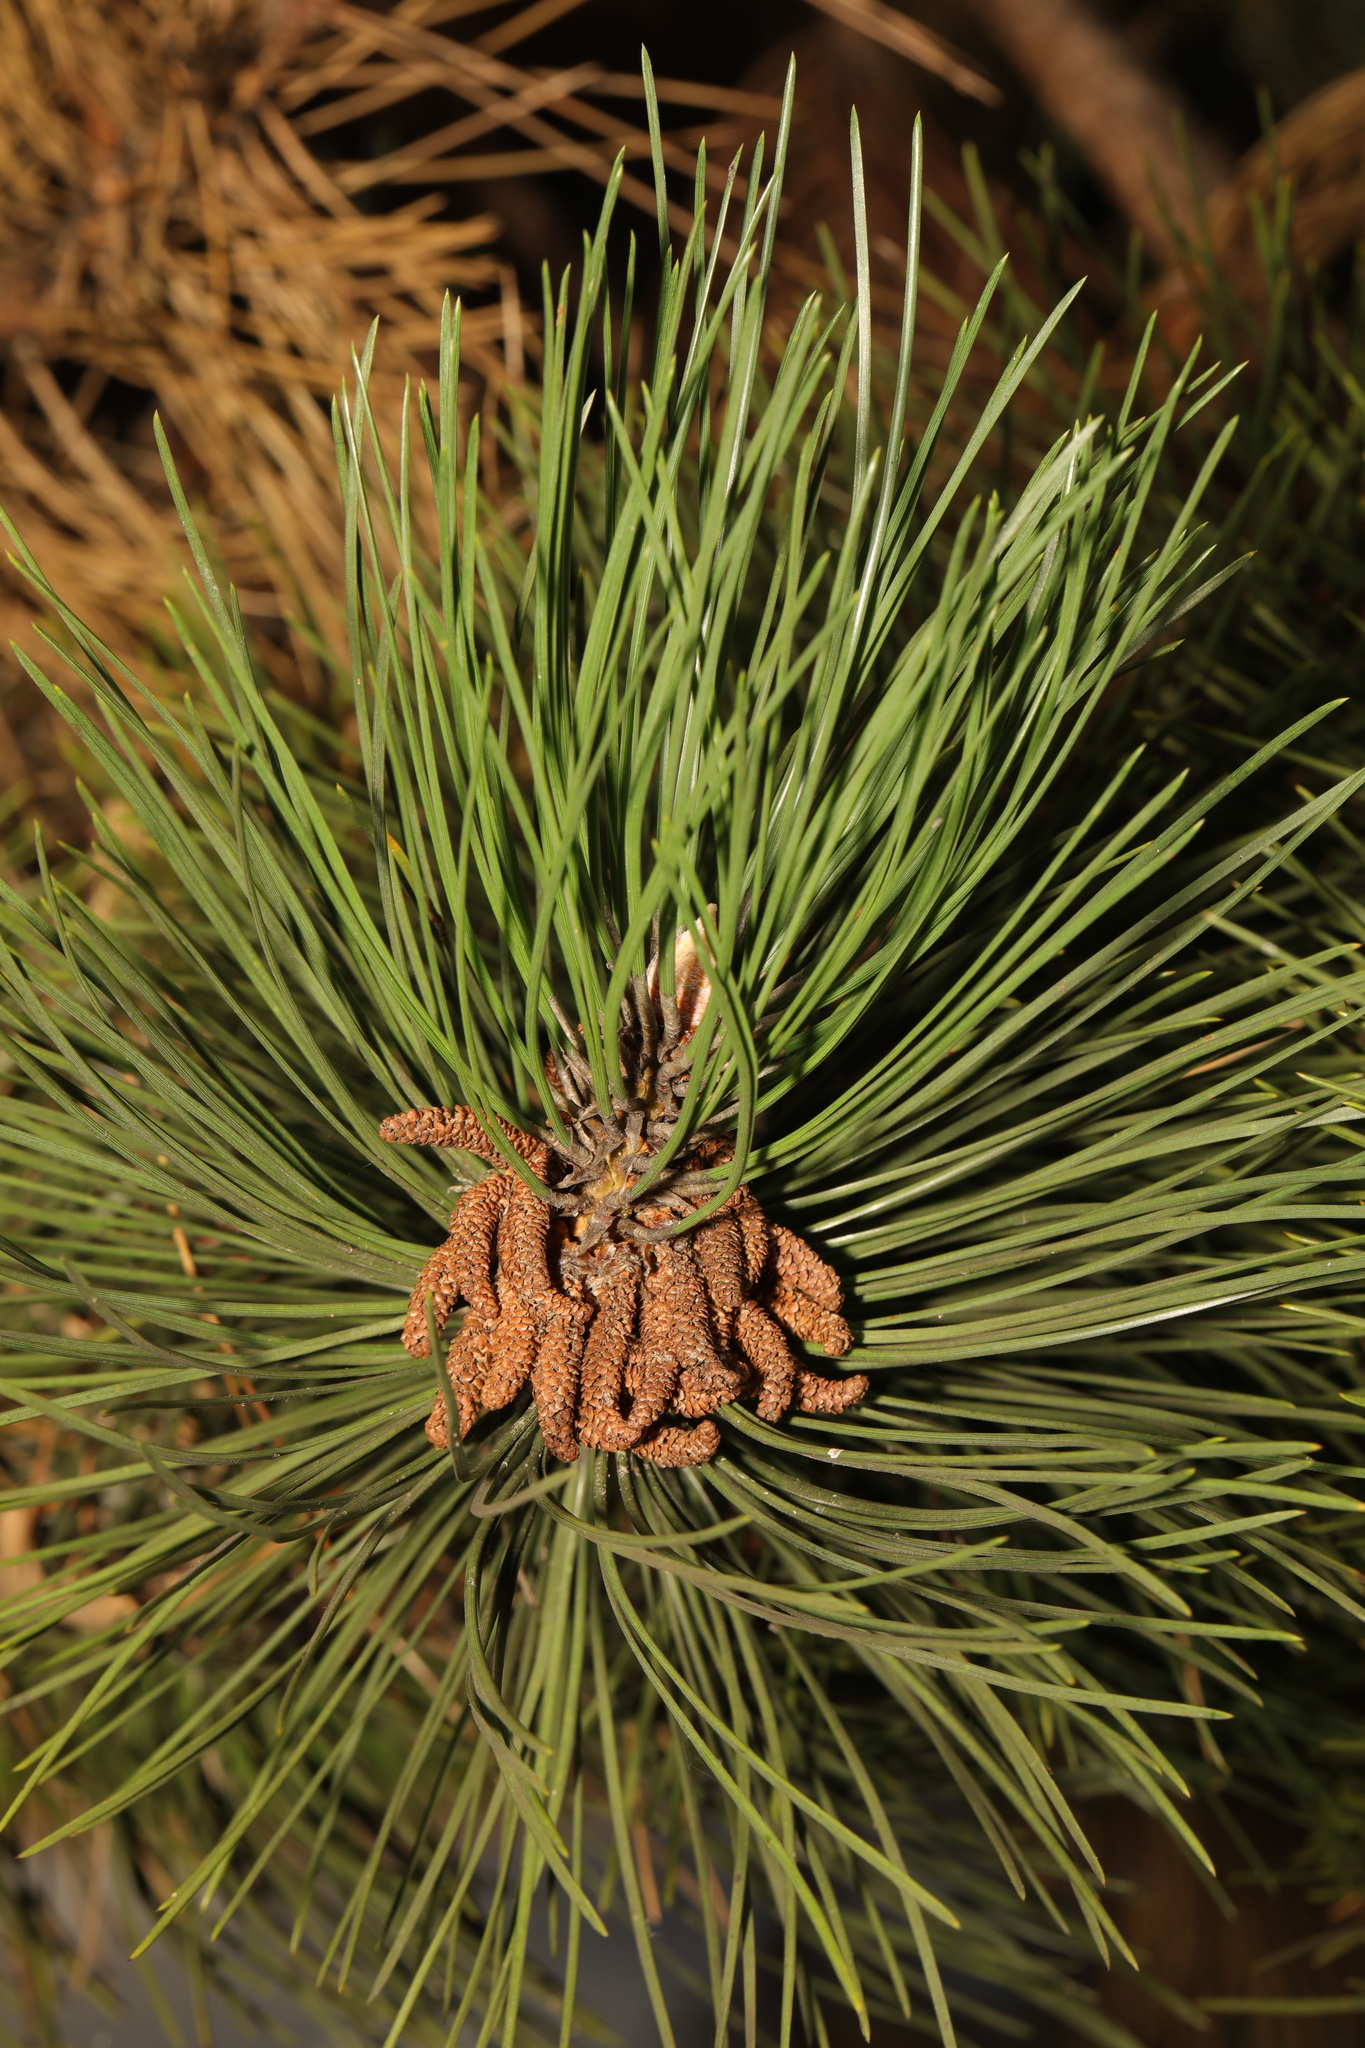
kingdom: Plantae
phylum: Tracheophyta
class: Pinopsida
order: Pinales
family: Pinaceae
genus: Pinus
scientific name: Pinus nigra
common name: Austrian pine
